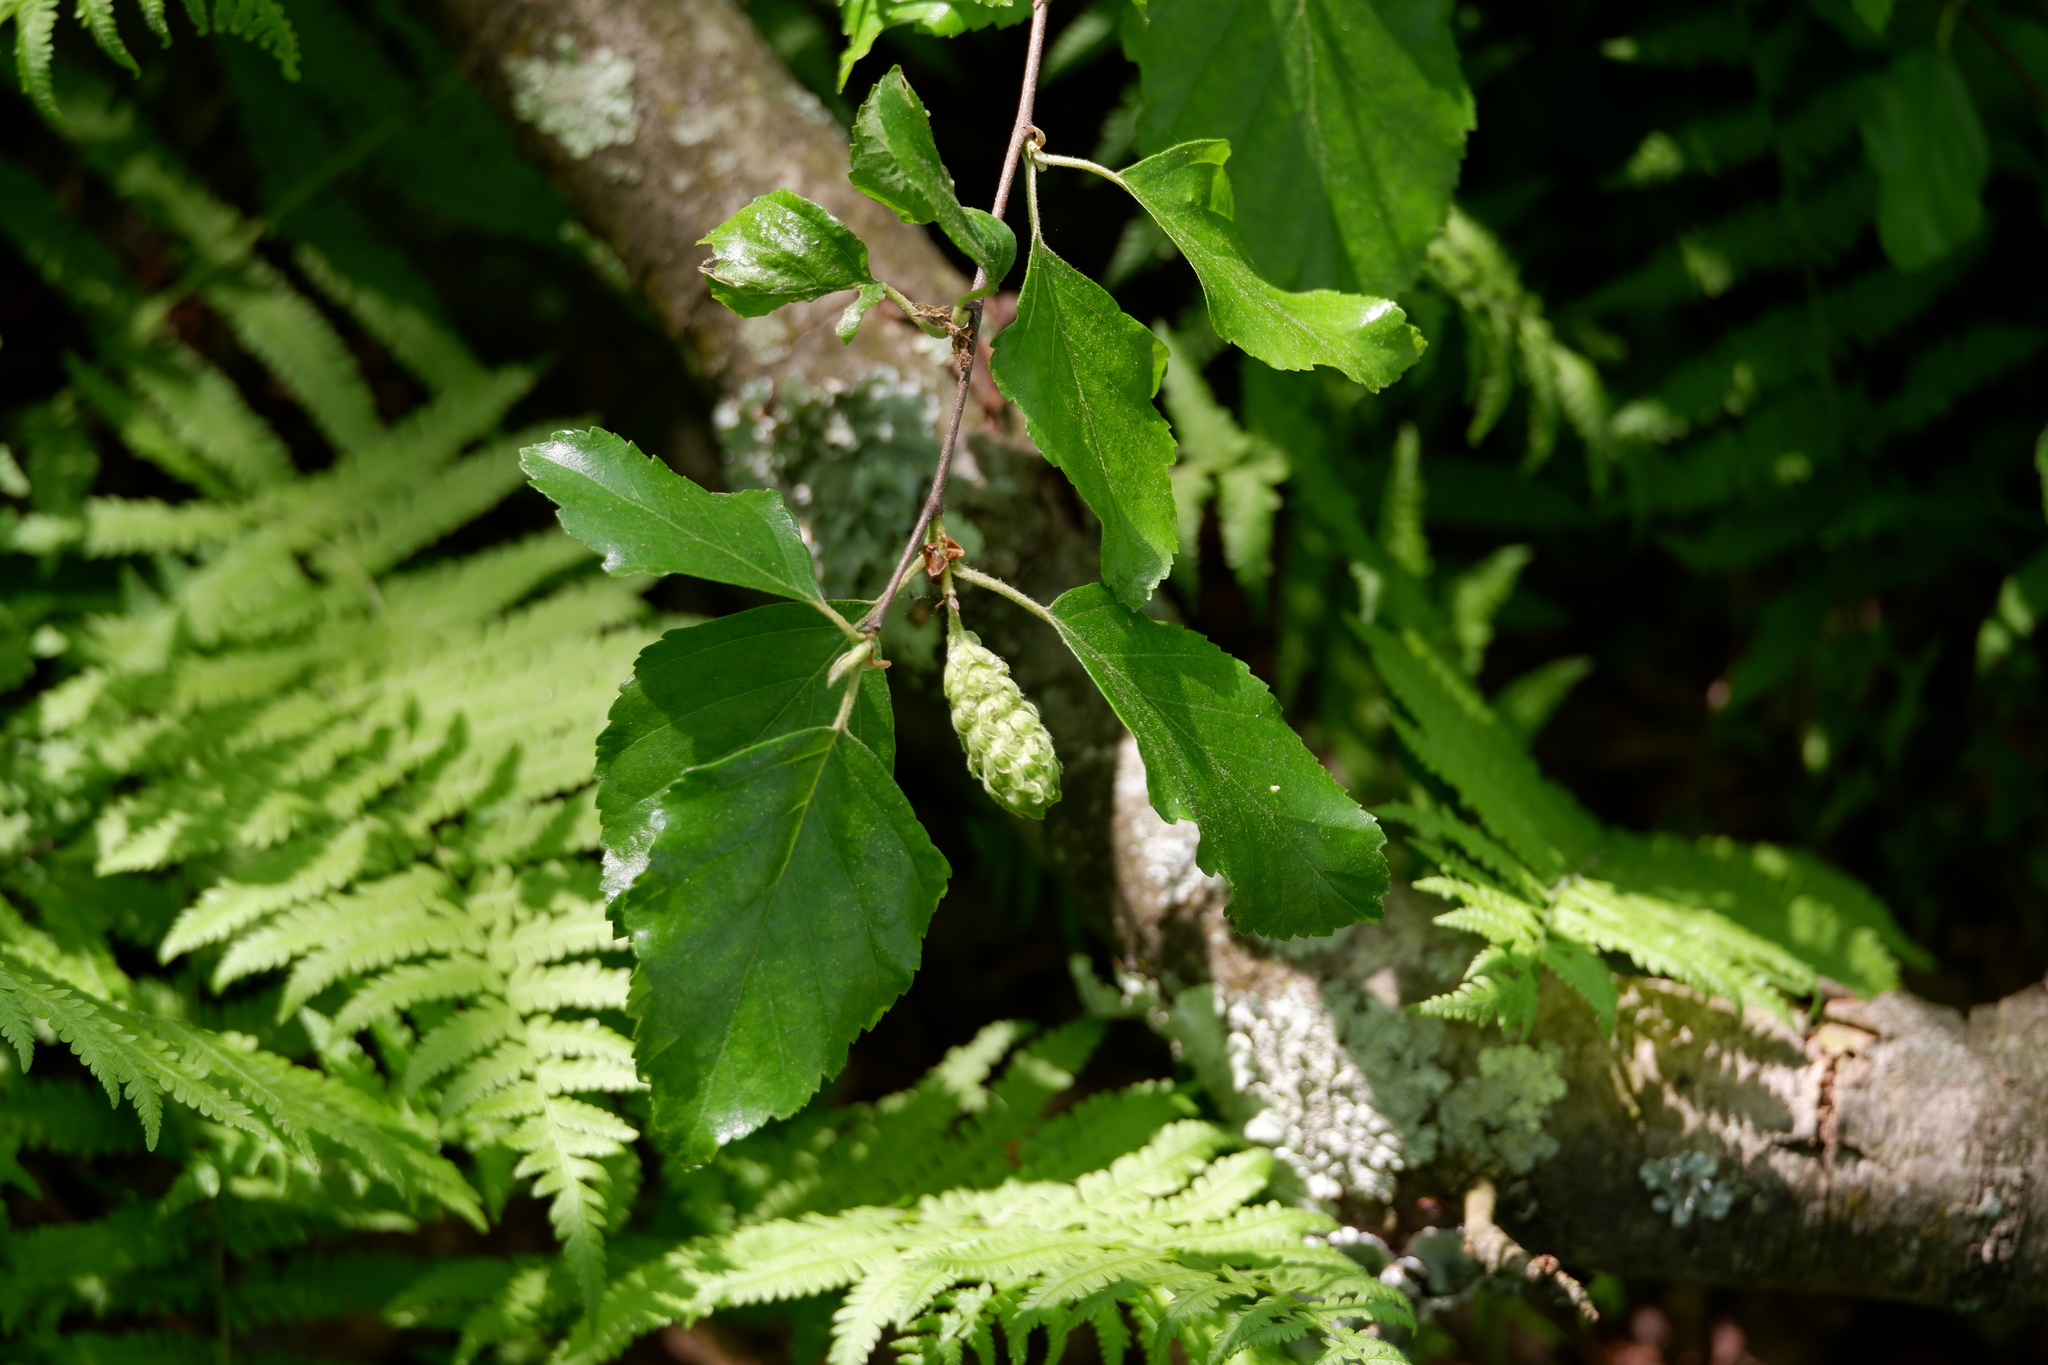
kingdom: Plantae
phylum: Tracheophyta
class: Magnoliopsida
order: Fagales
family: Betulaceae
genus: Betula
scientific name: Betula nigra
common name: Black birch
